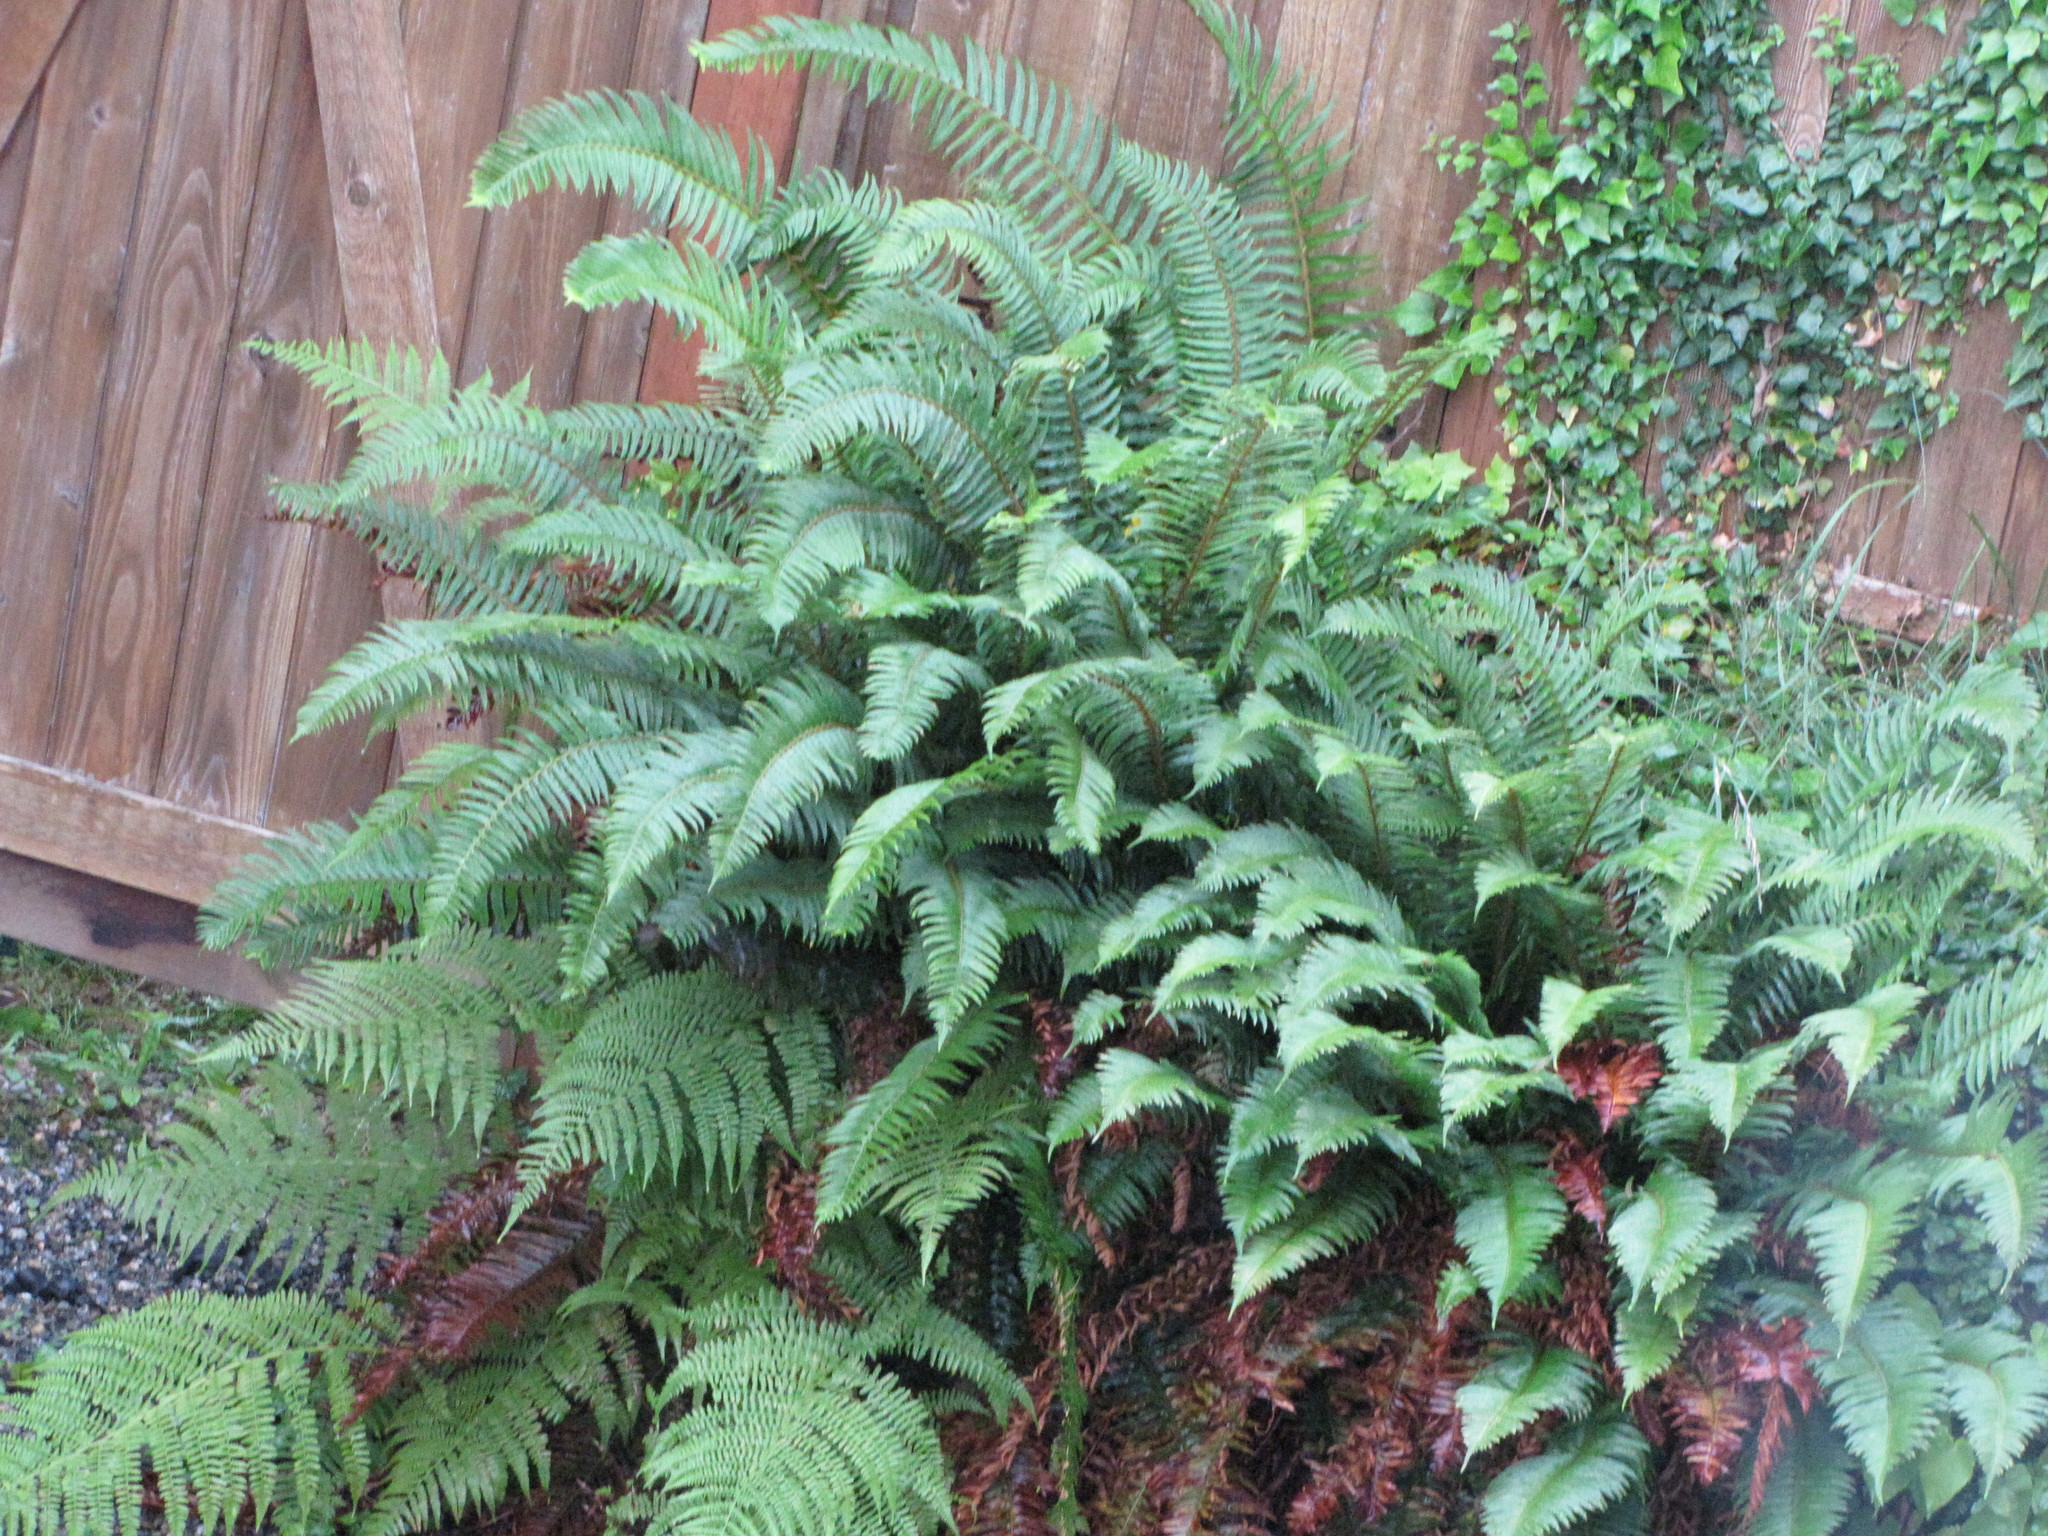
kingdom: Plantae
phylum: Tracheophyta
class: Polypodiopsida
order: Polypodiales
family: Dryopteridaceae
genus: Polystichum
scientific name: Polystichum munitum
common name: Western sword-fern
